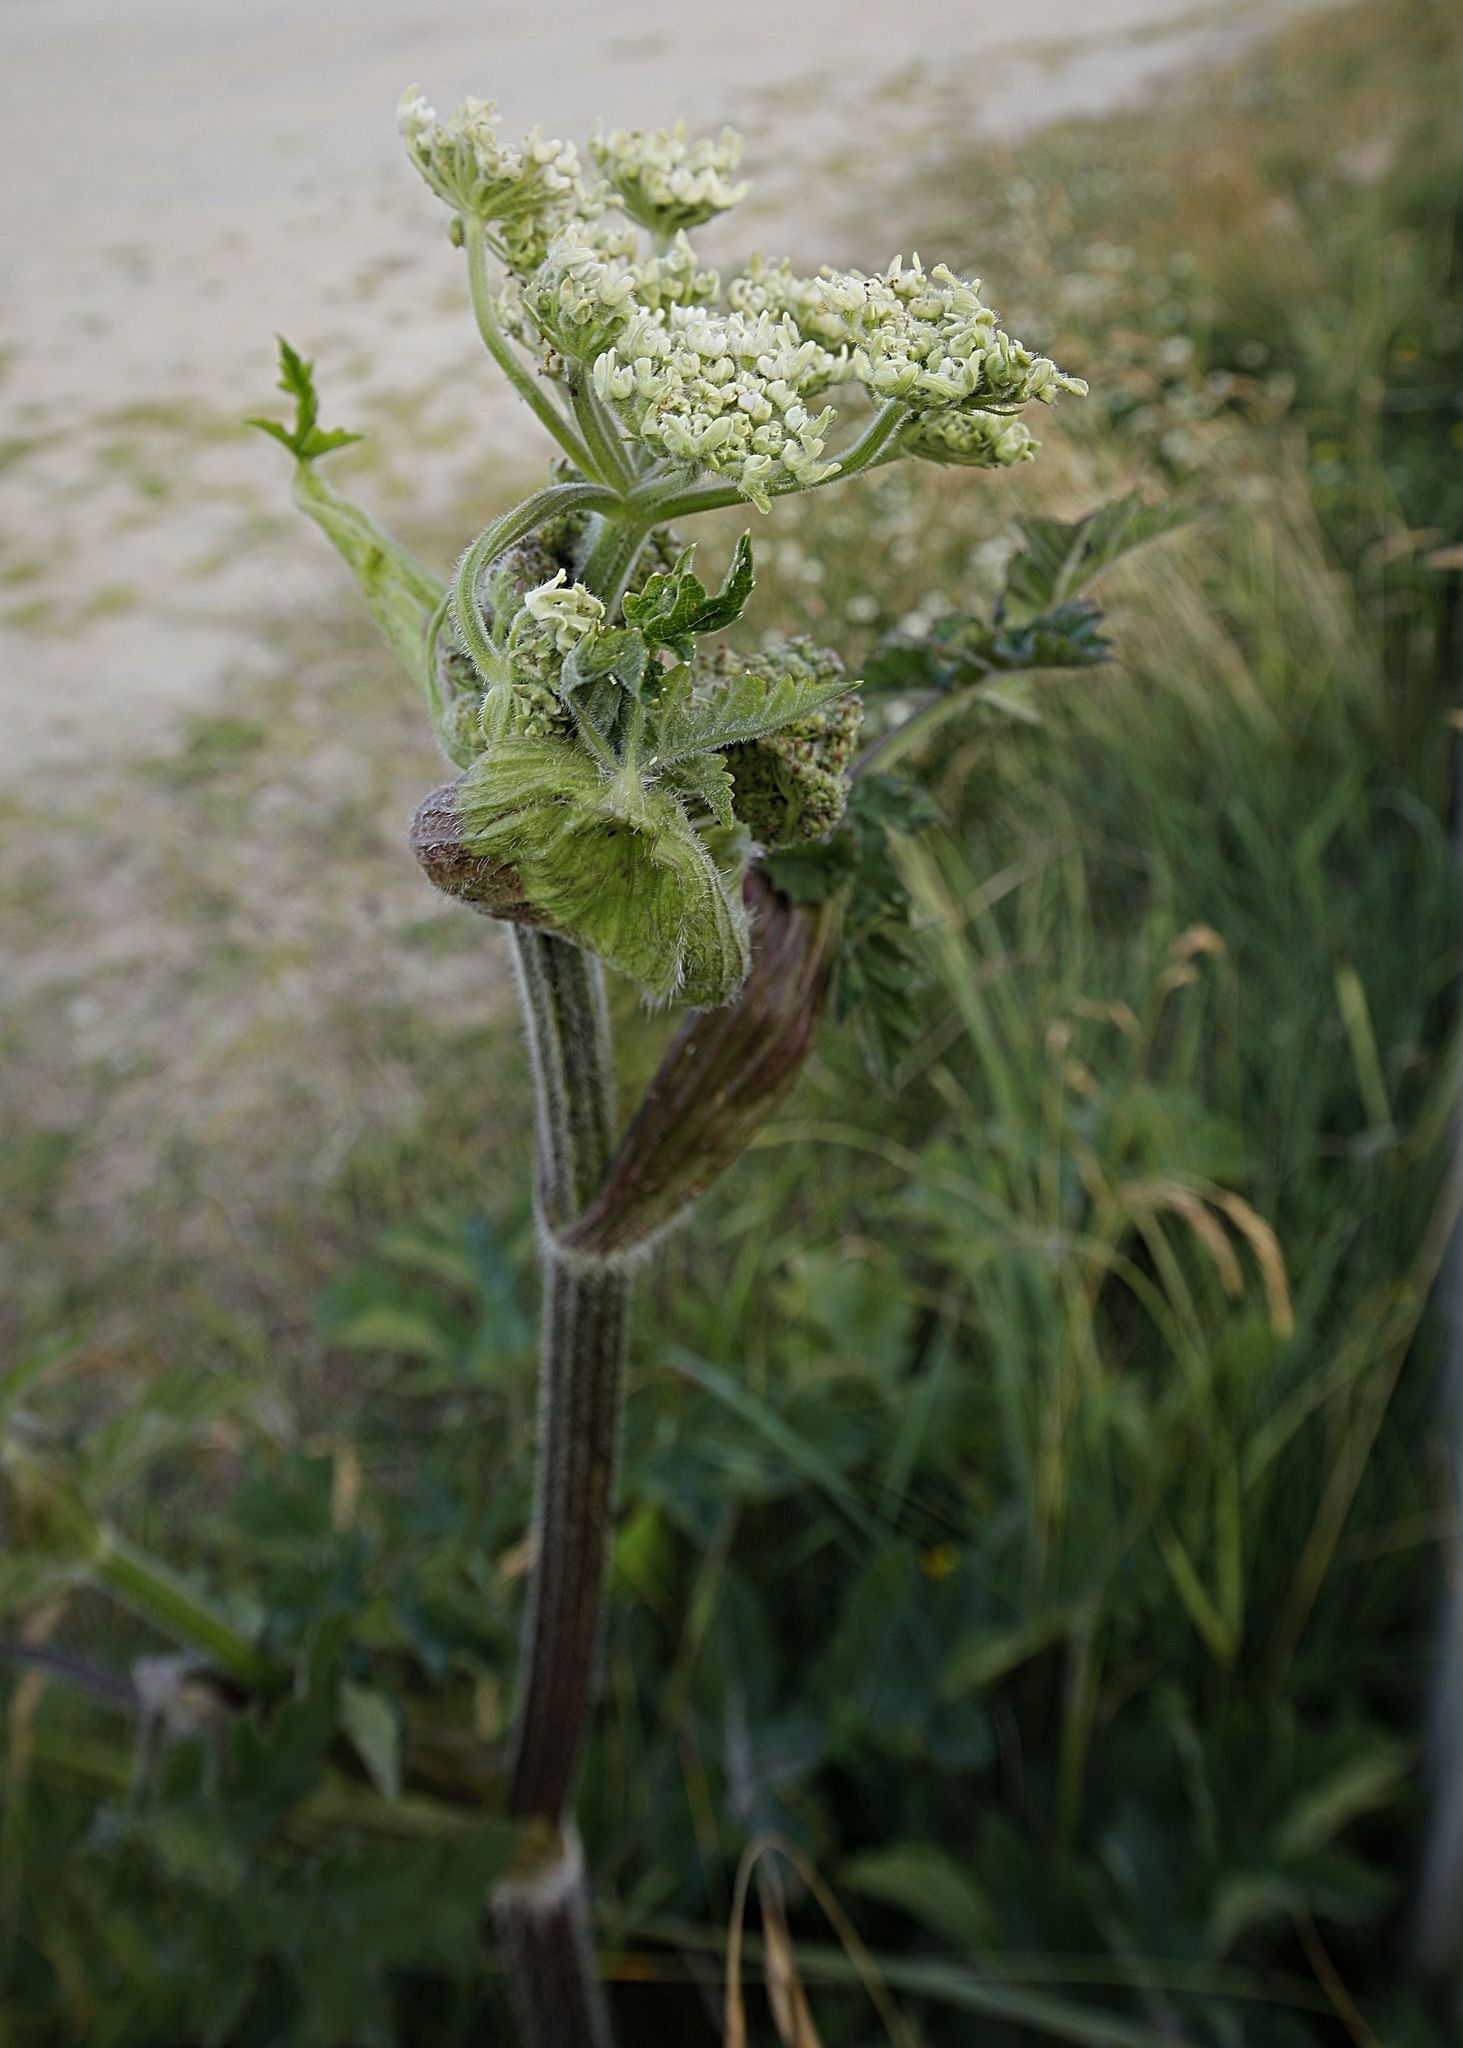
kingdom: Plantae
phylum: Tracheophyta
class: Magnoliopsida
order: Apiales
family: Apiaceae
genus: Heracleum
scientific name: Heracleum sphondylium
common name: Hogweed
